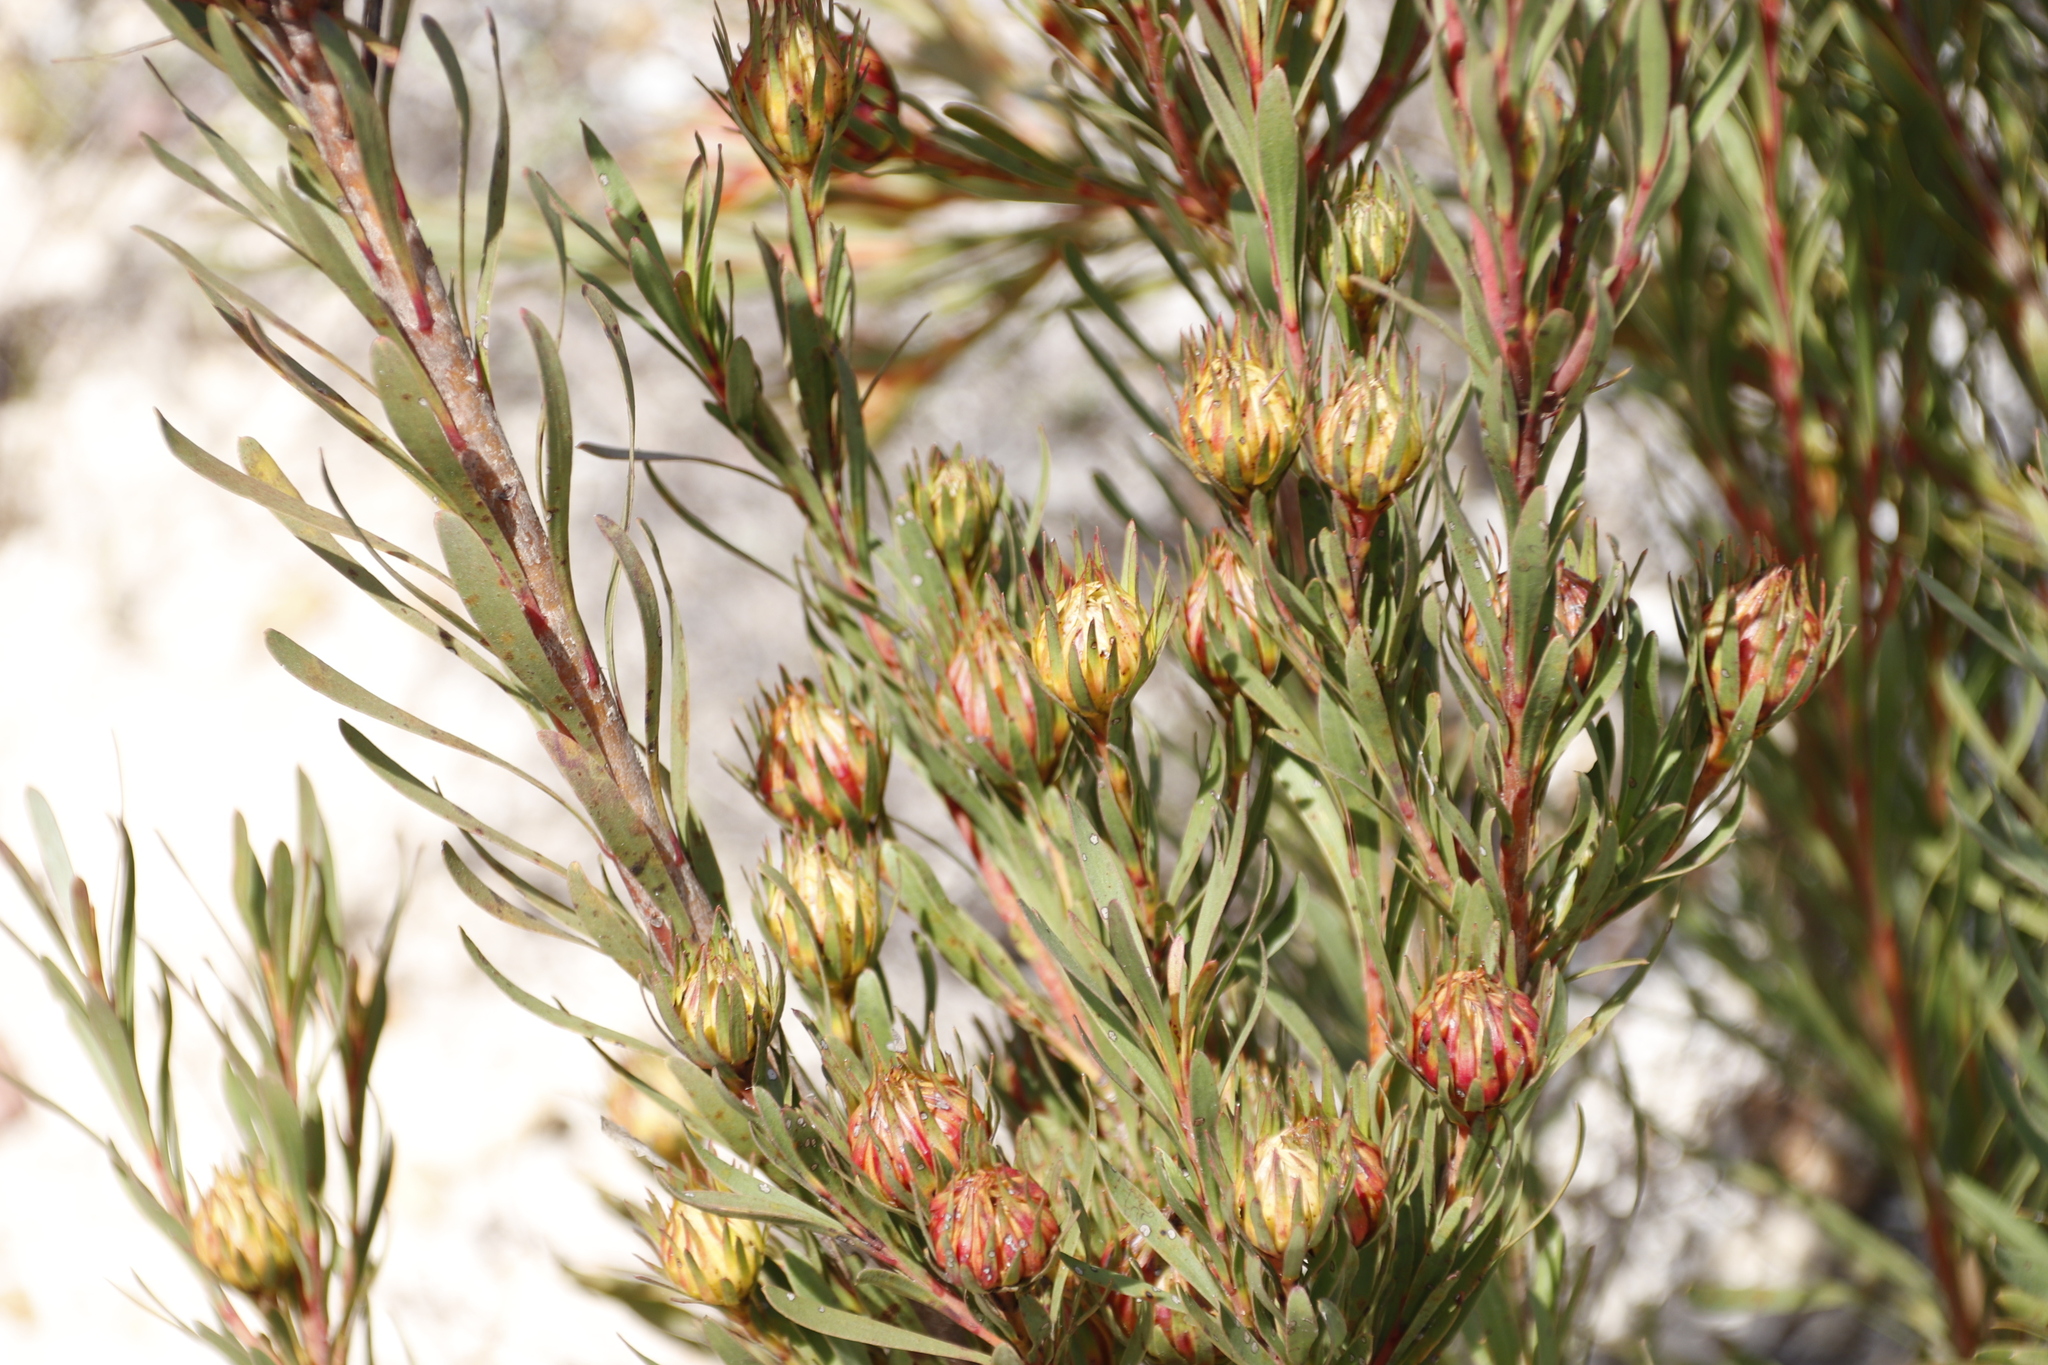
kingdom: Plantae
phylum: Tracheophyta
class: Magnoliopsida
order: Proteales
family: Proteaceae
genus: Aulax
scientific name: Aulax umbellata
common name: Broad-leaf featherbush
